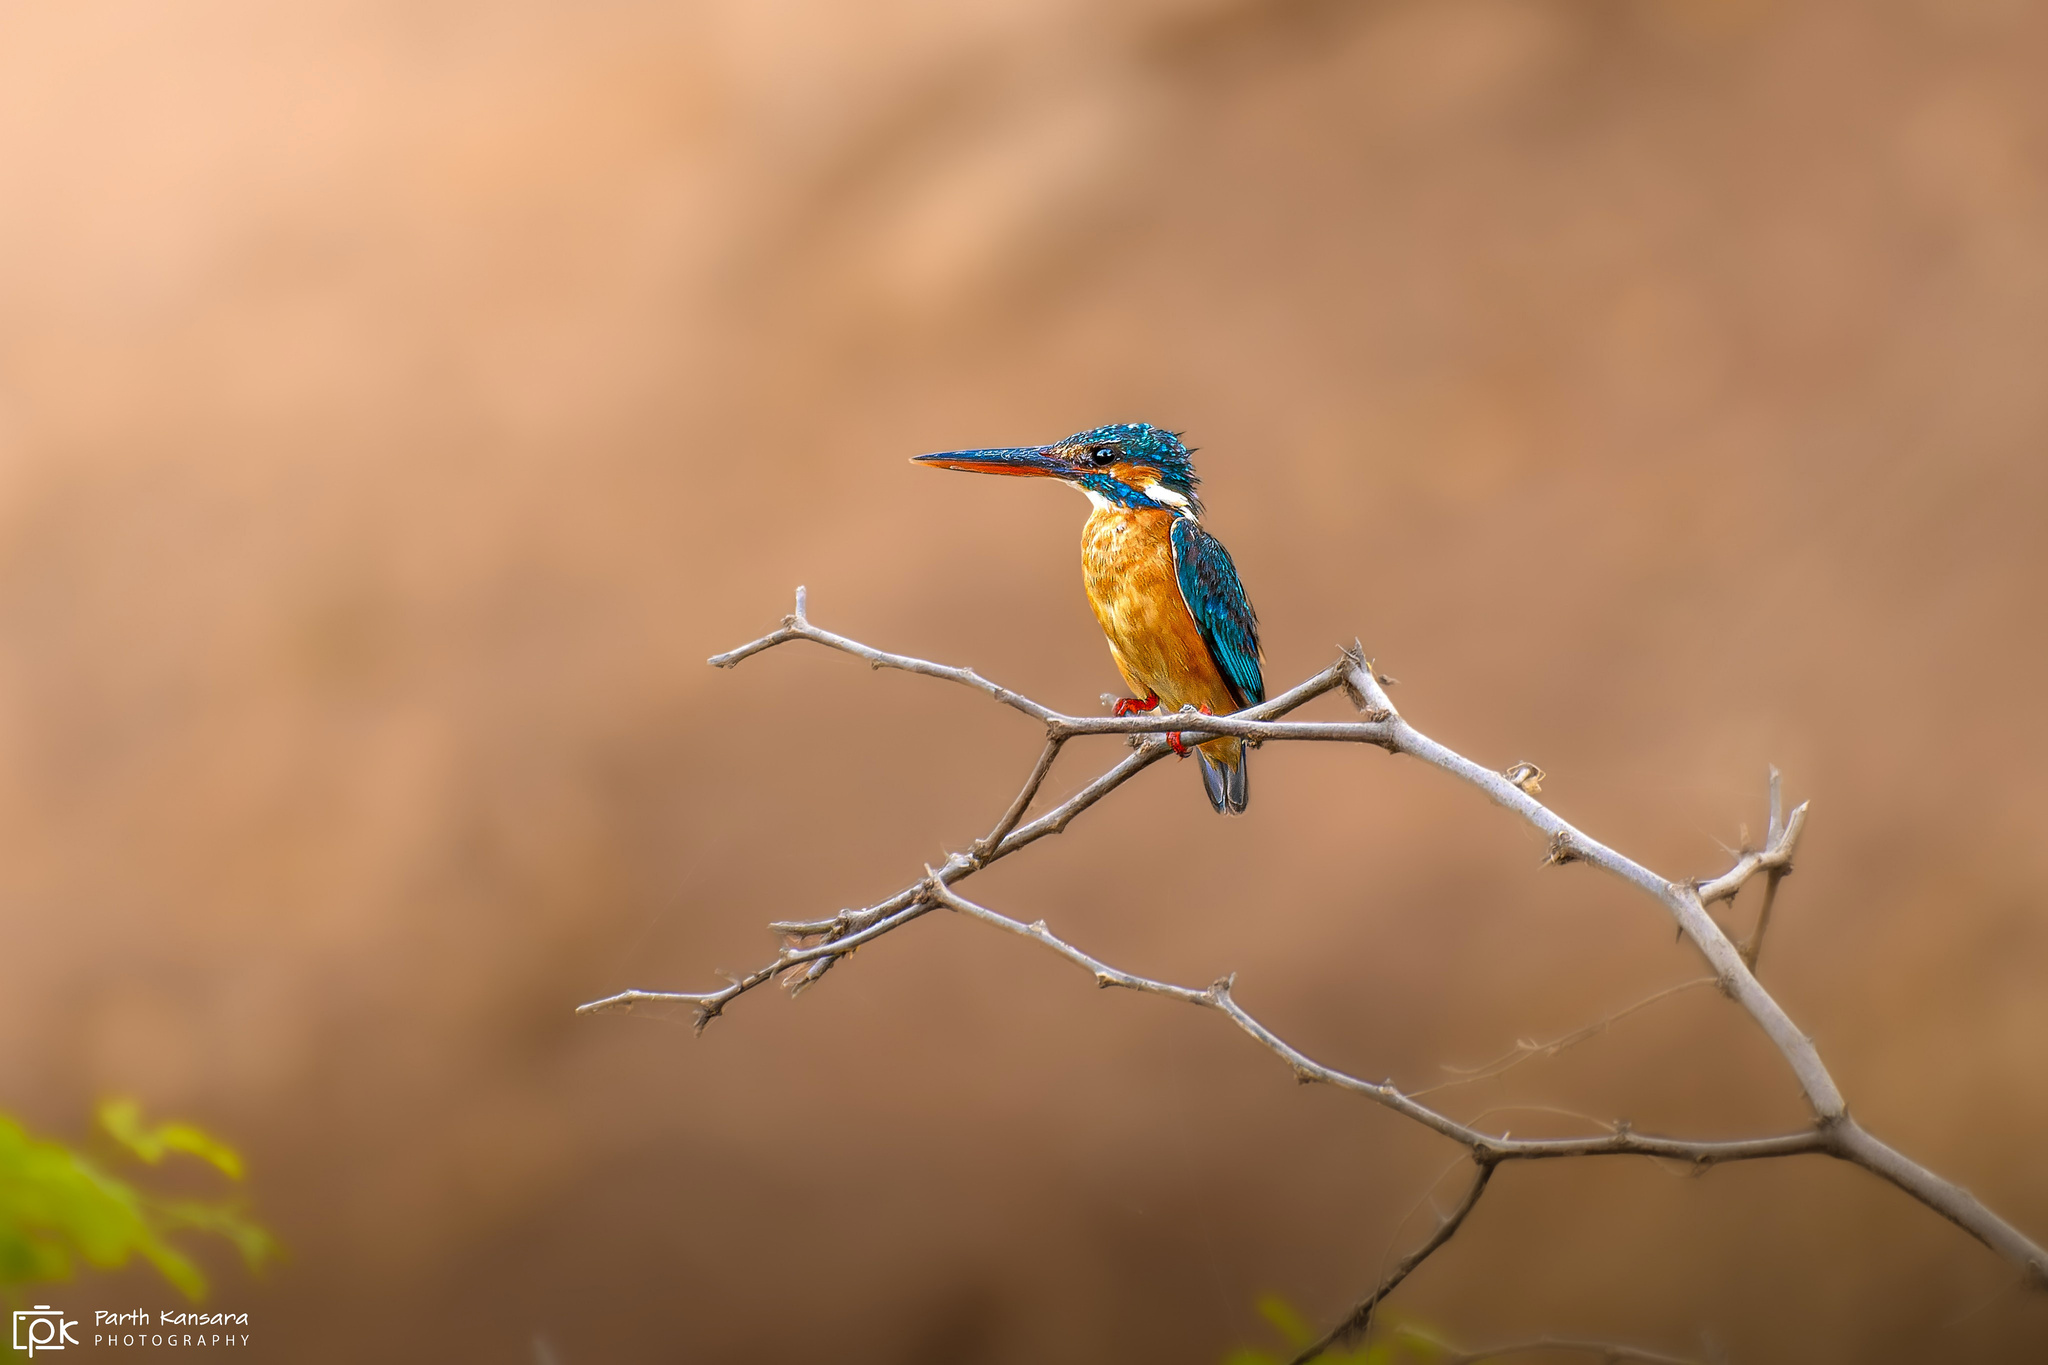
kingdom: Animalia
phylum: Chordata
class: Aves
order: Coraciiformes
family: Alcedinidae
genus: Alcedo
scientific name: Alcedo atthis
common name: Common kingfisher
